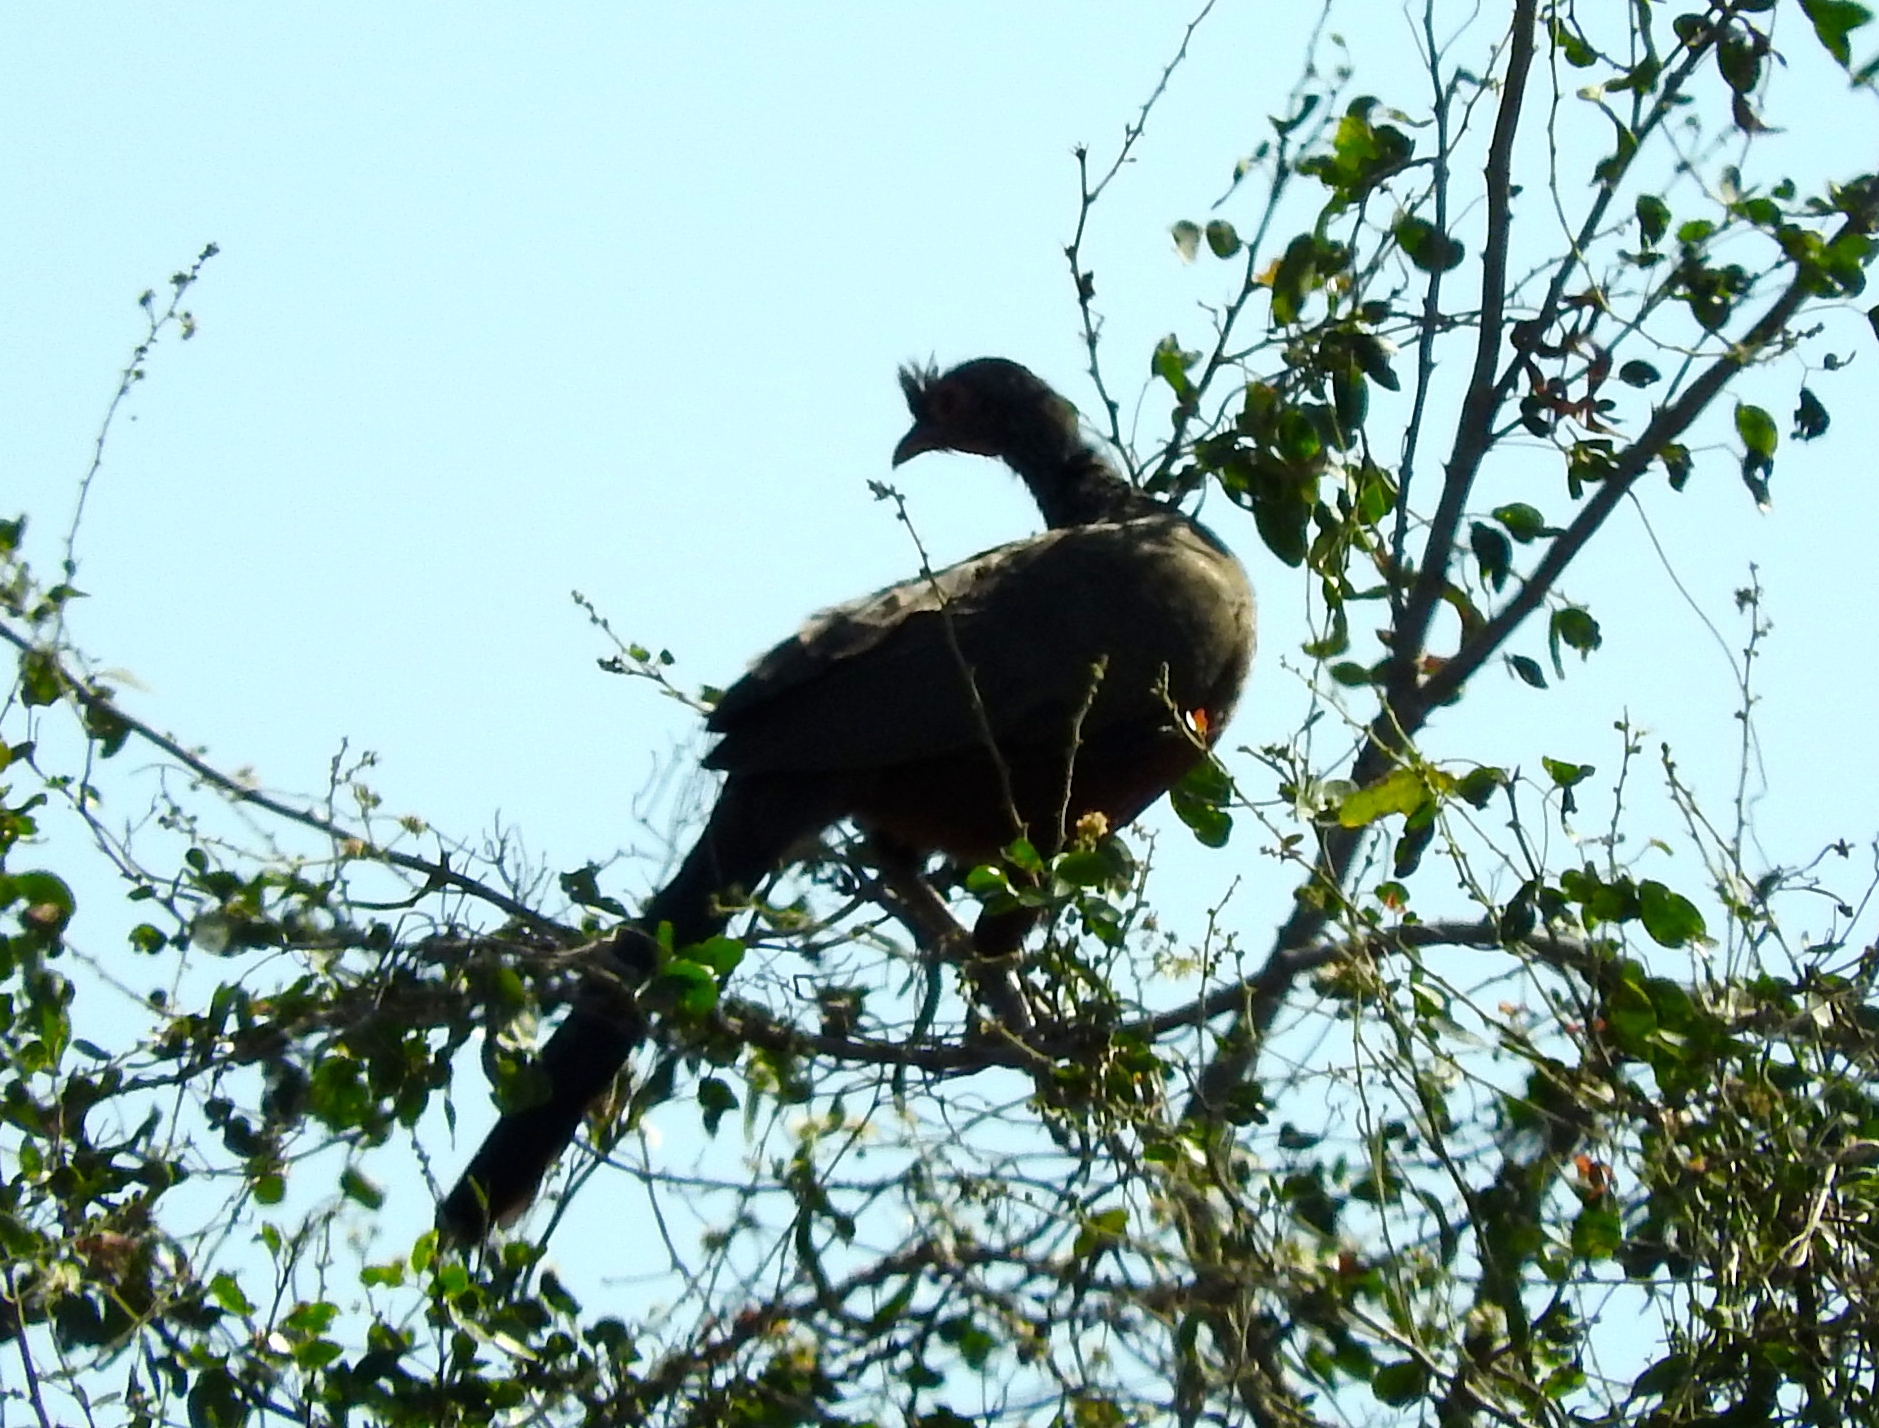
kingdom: Animalia
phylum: Chordata
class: Aves
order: Galliformes
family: Cracidae
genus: Ortalis
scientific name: Ortalis wagleri
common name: Rufous-bellied chachalaca
